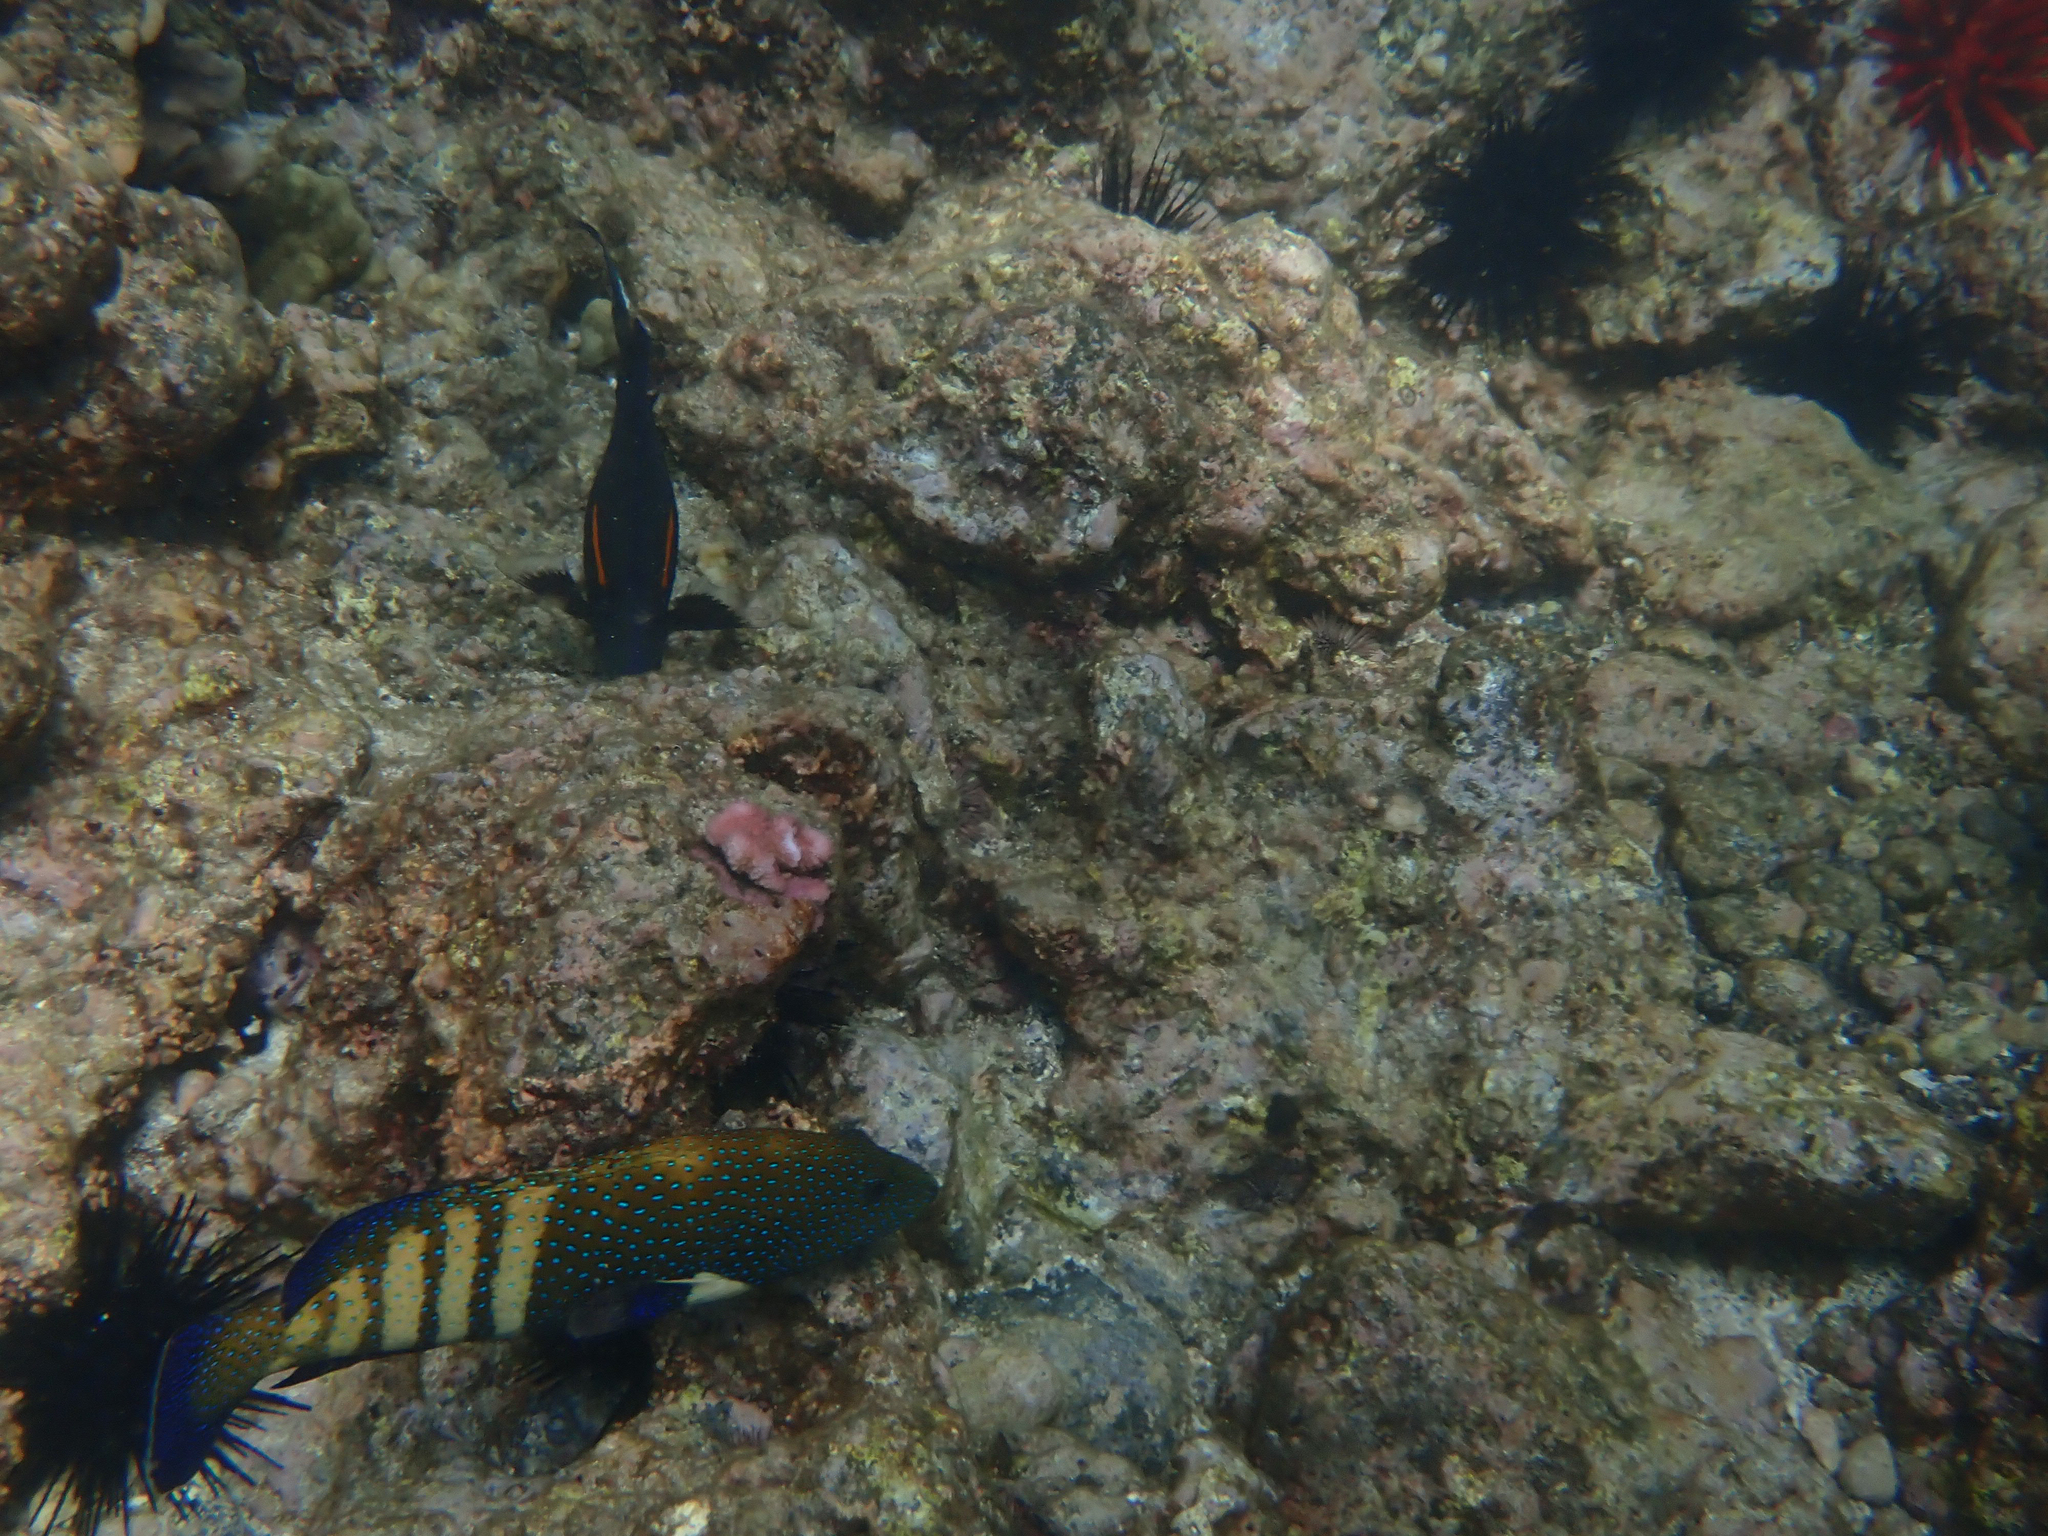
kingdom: Animalia
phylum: Chordata
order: Perciformes
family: Serranidae
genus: Cephalopholis
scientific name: Cephalopholis argus
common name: Peacock grouper
